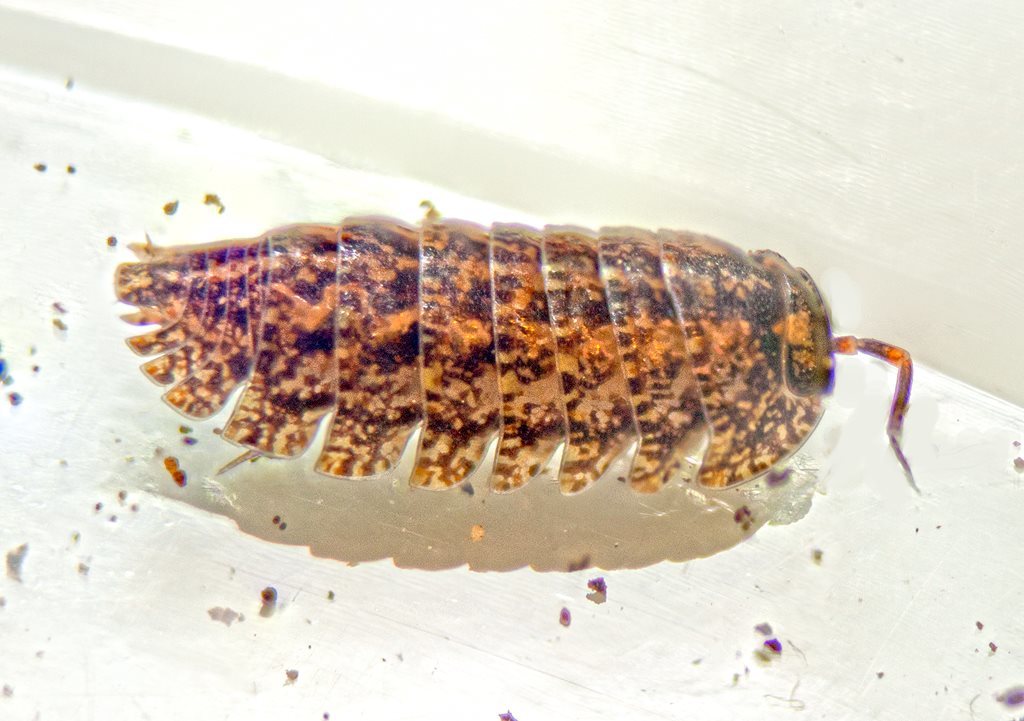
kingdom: Animalia
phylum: Arthropoda
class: Malacostraca
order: Isopoda
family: Armadillidae
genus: Cubaris
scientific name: Cubaris marmorata
